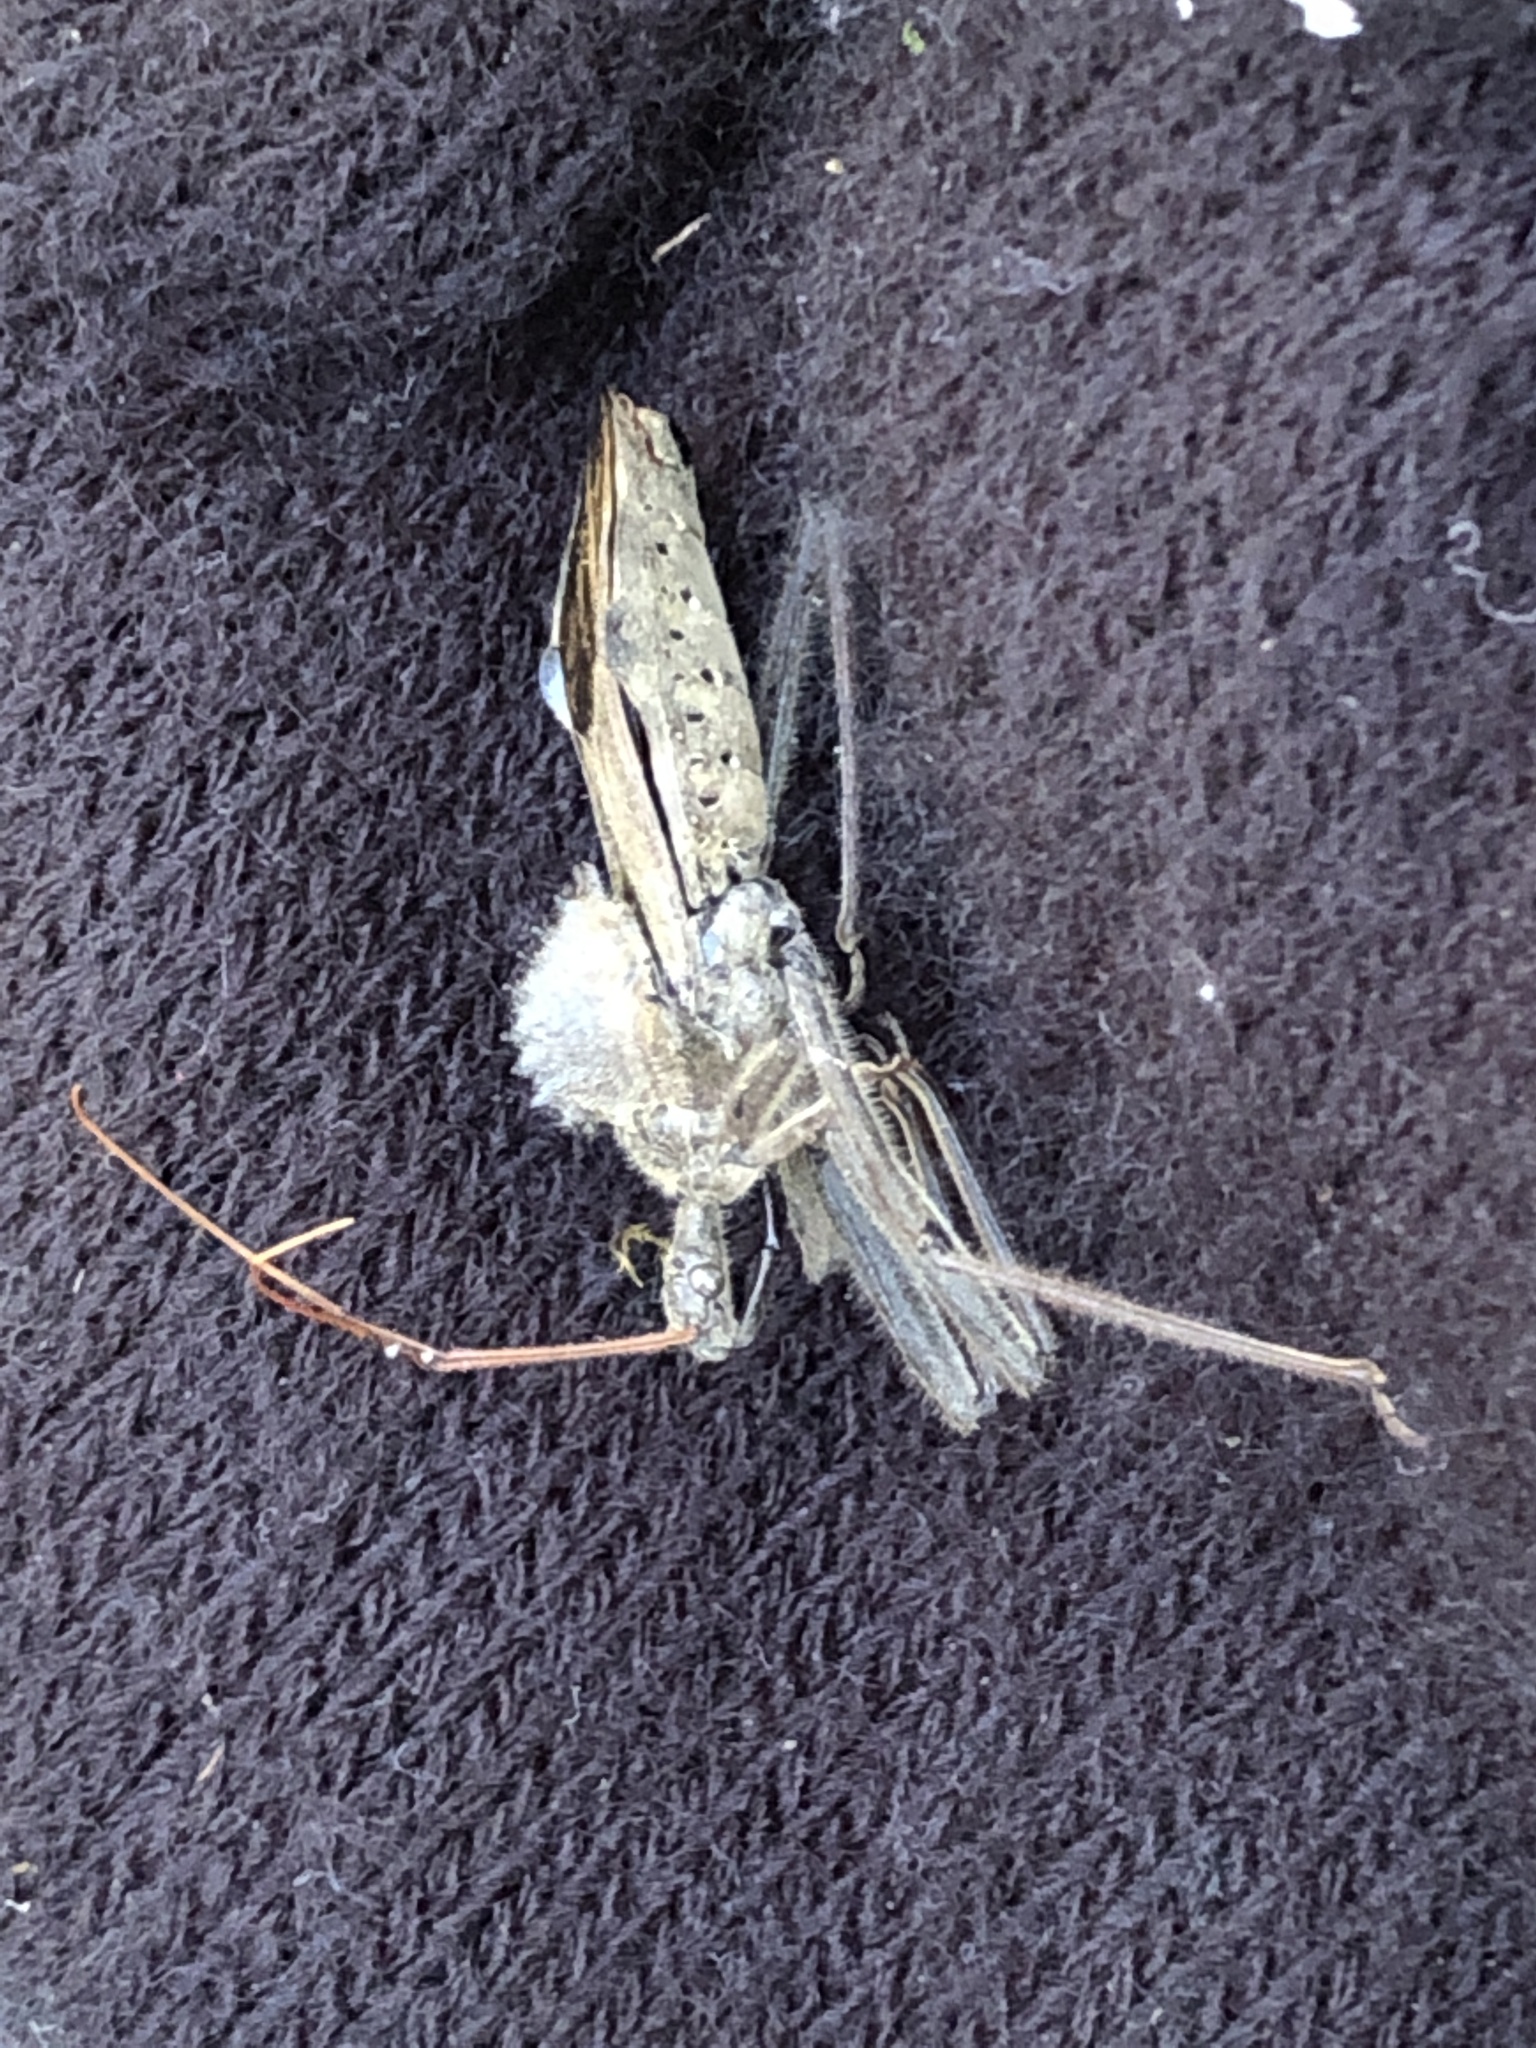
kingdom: Animalia
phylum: Arthropoda
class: Insecta
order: Hemiptera
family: Reduviidae
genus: Arilus
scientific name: Arilus cristatus
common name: North american wheel bug
